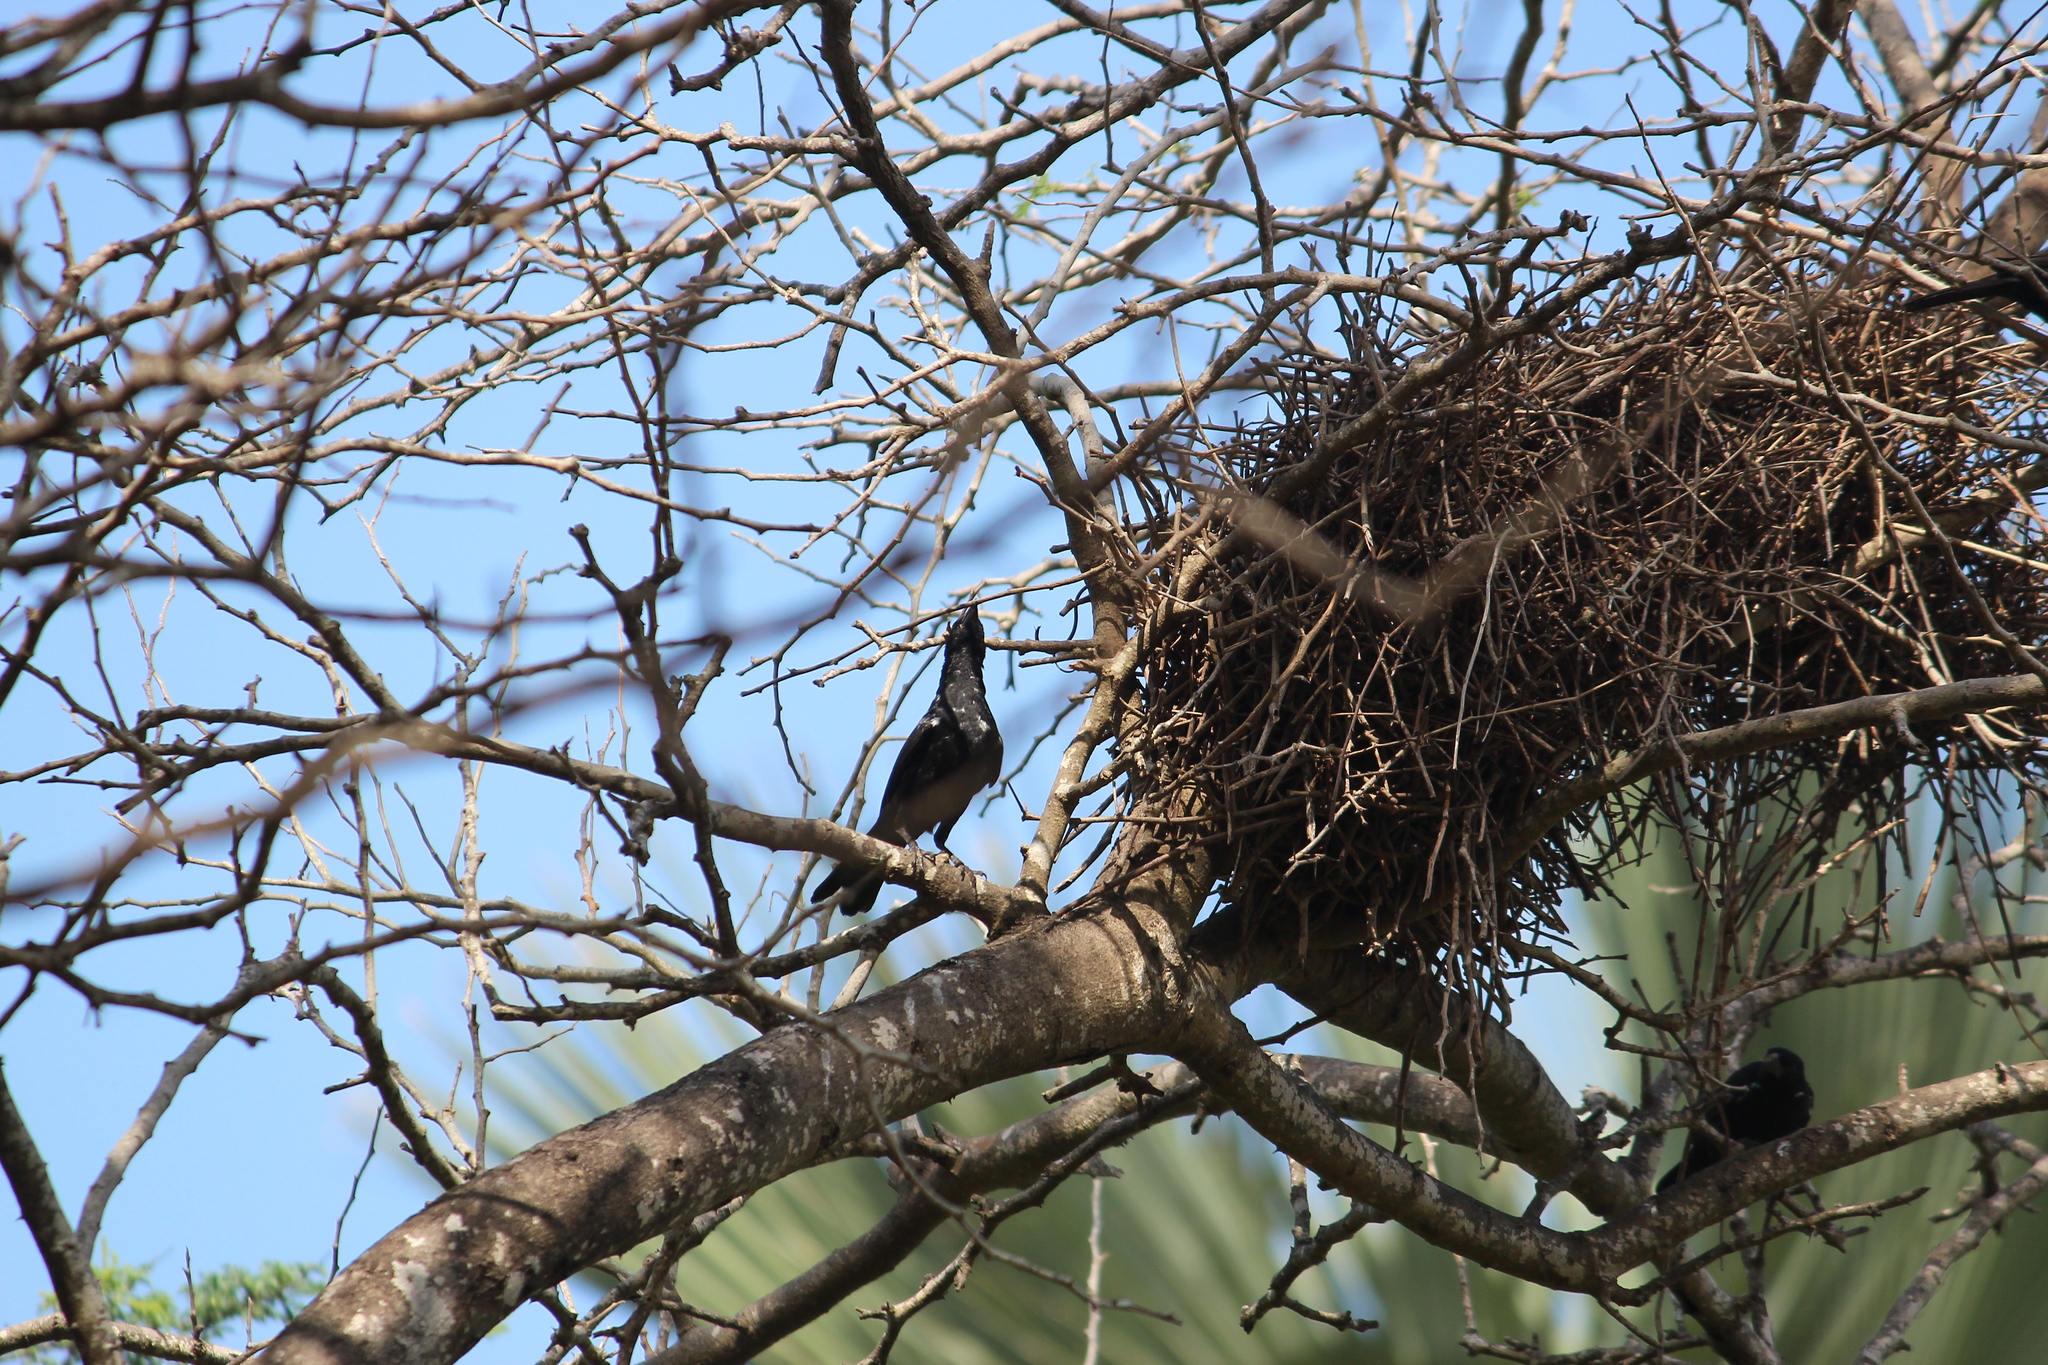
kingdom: Animalia
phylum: Chordata
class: Aves
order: Passeriformes
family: Ploceidae
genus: Bubalornis
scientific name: Bubalornis albirostris
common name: White-billed buffalo weaver
